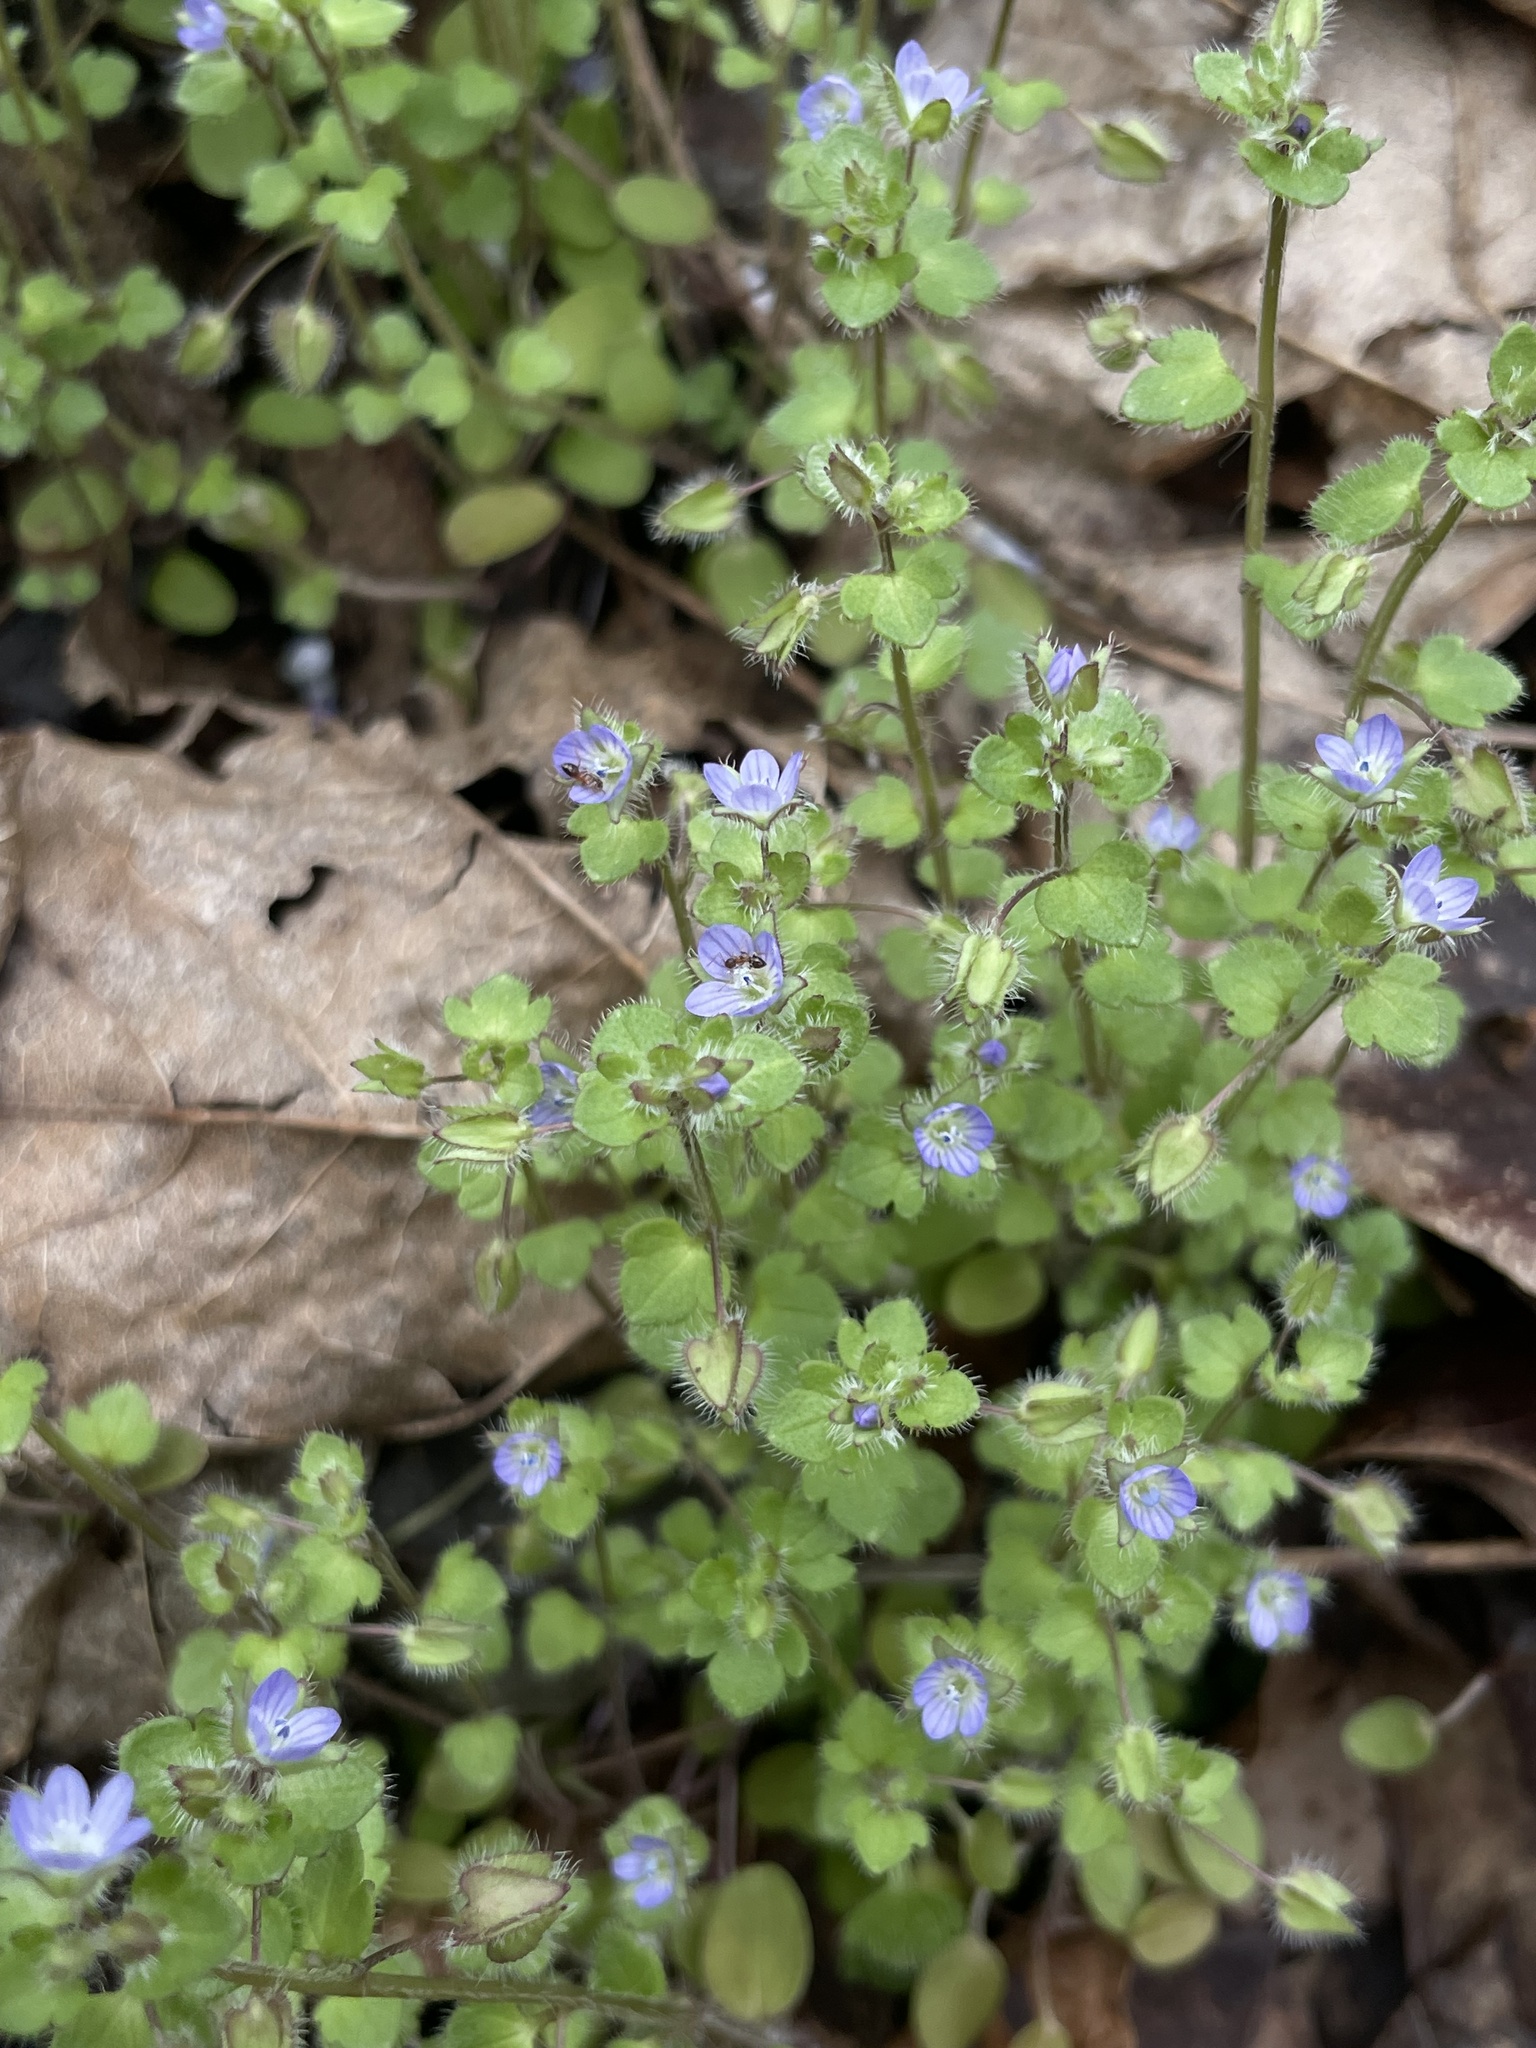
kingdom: Plantae
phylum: Tracheophyta
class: Magnoliopsida
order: Lamiales
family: Plantaginaceae
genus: Veronica
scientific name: Veronica hederifolia
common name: Ivy-leaved speedwell
